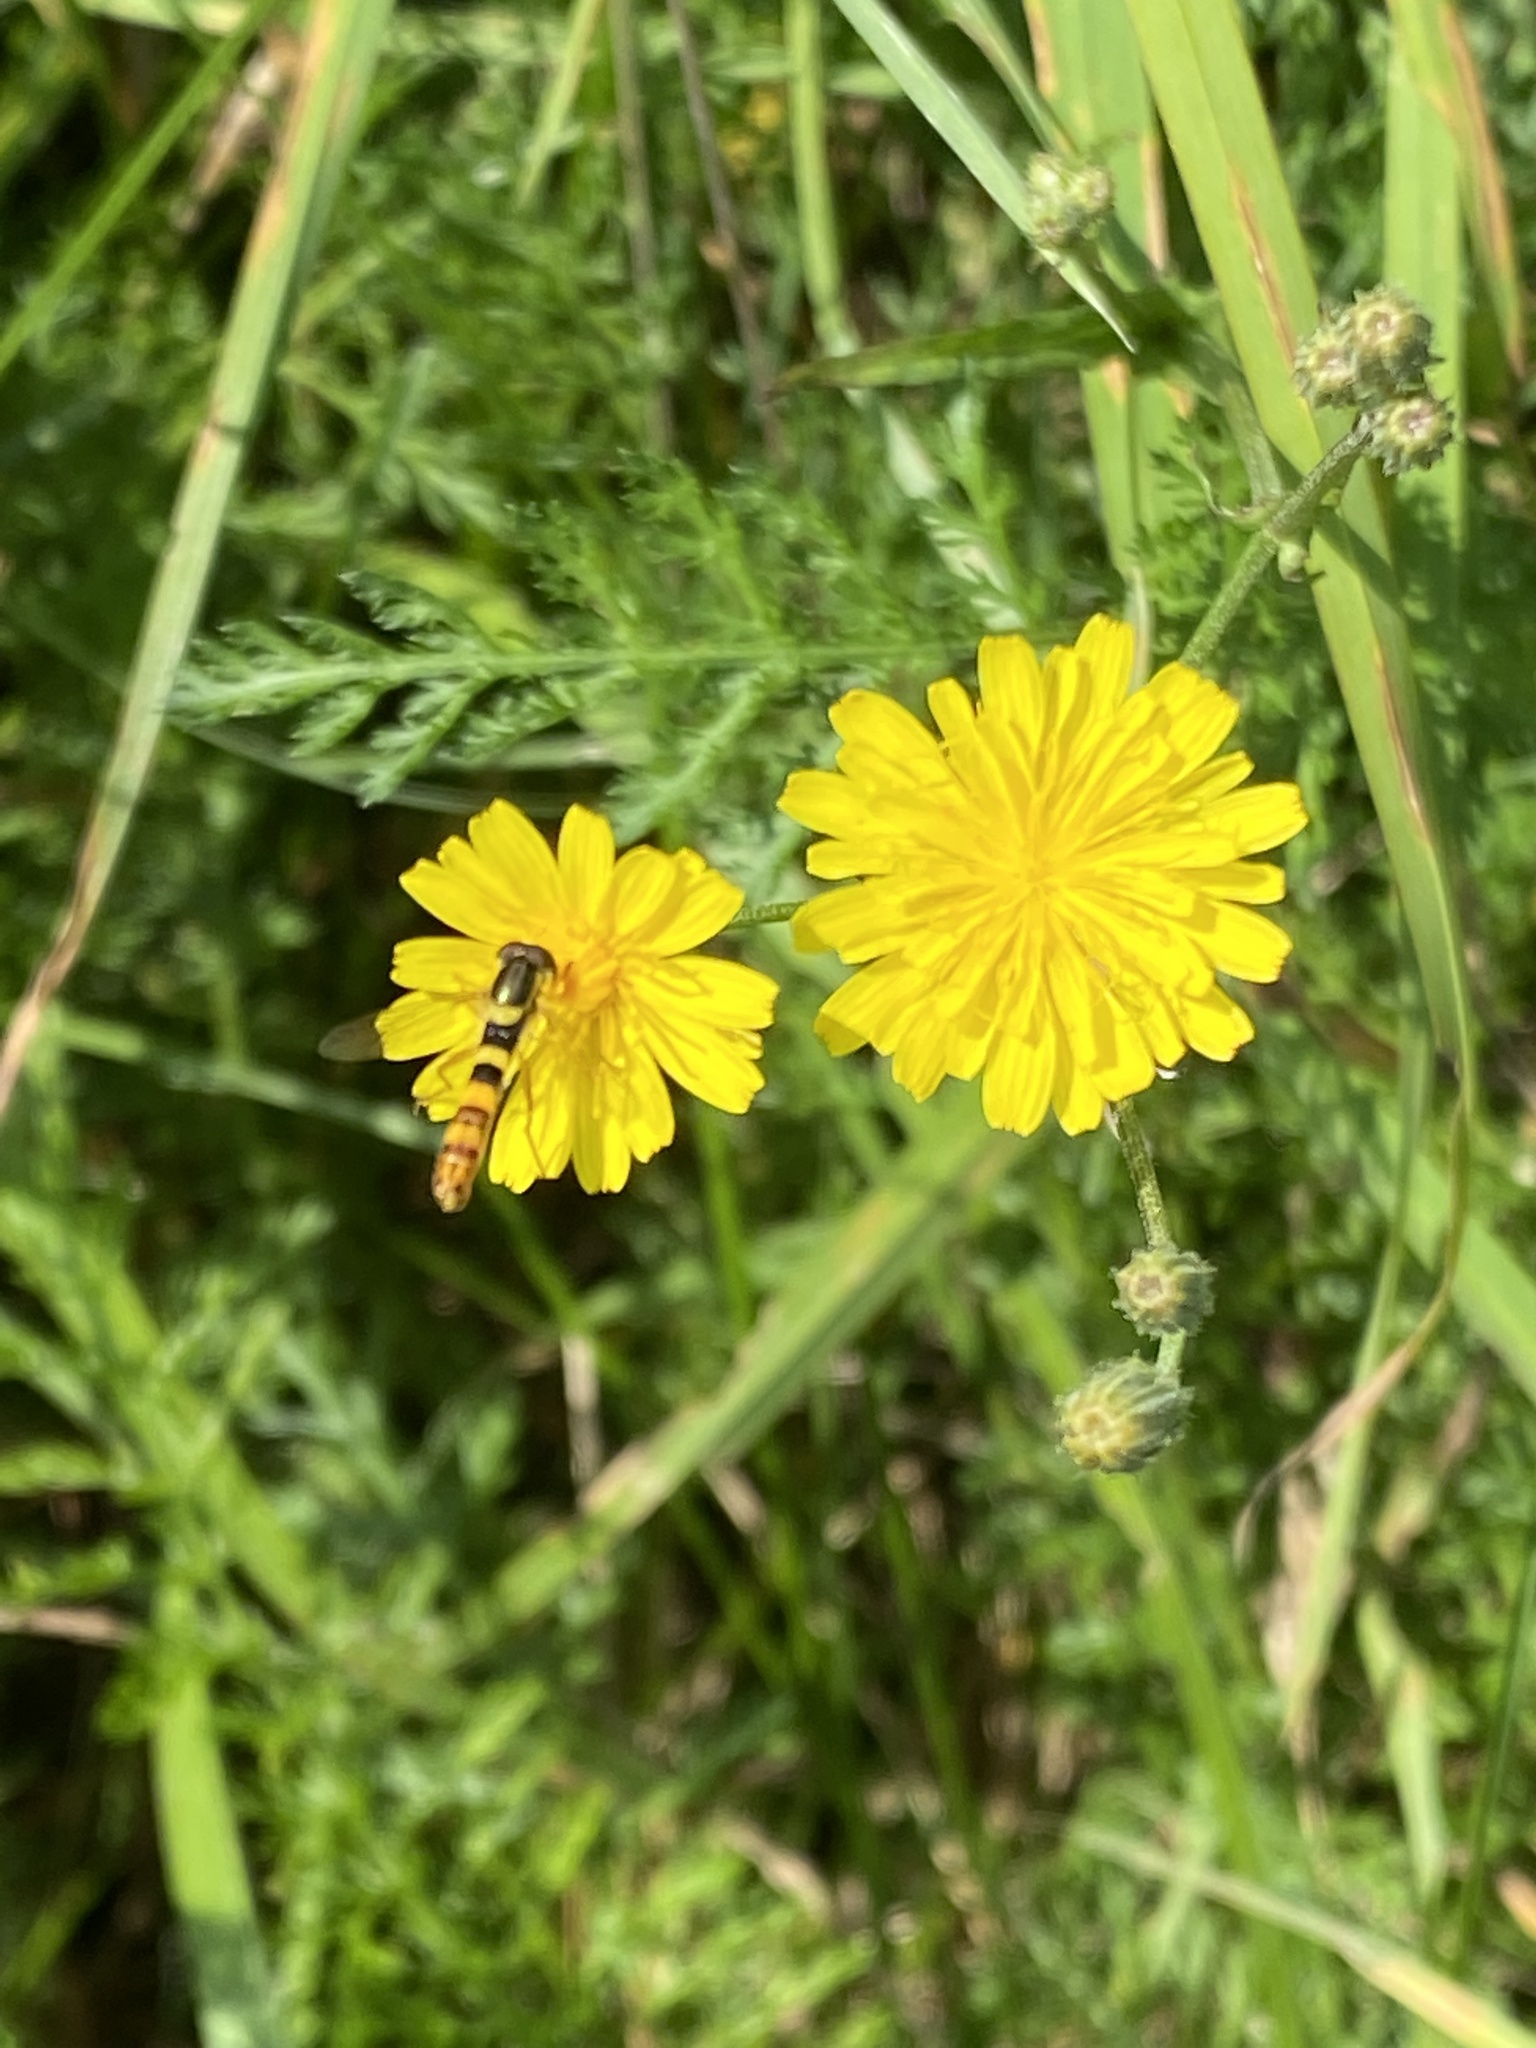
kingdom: Animalia
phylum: Arthropoda
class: Insecta
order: Diptera
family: Syrphidae
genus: Sphaerophoria
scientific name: Sphaerophoria scripta
